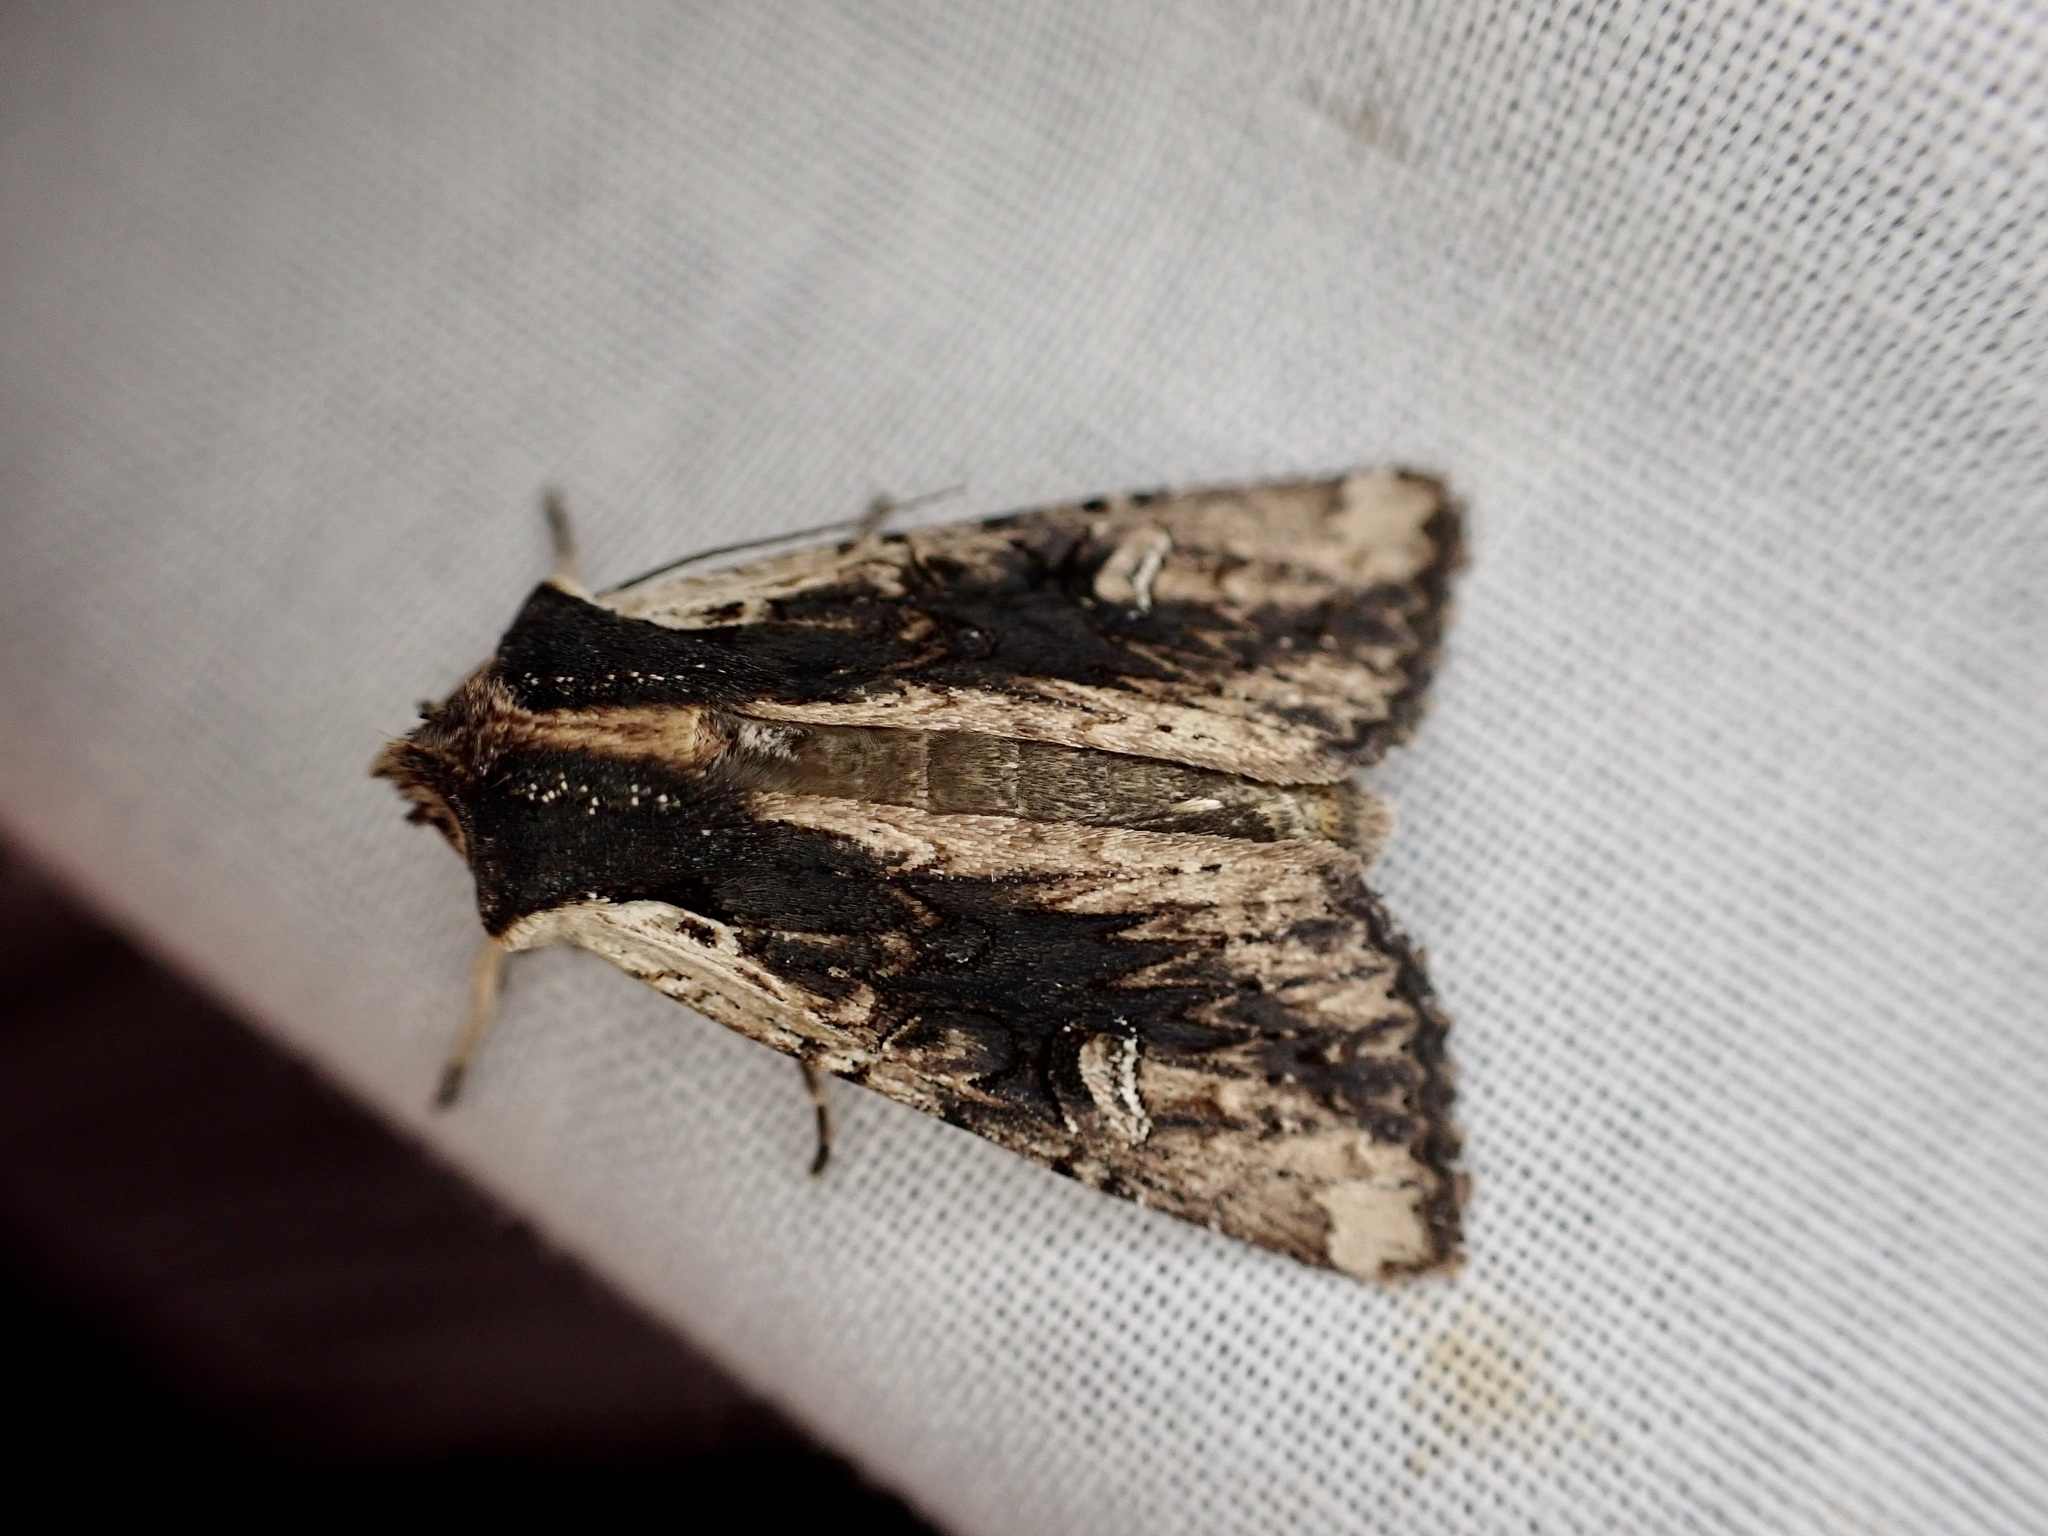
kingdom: Animalia
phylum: Arthropoda
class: Insecta
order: Lepidoptera
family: Noctuidae
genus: Ichneutica
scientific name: Ichneutica omoplaca
